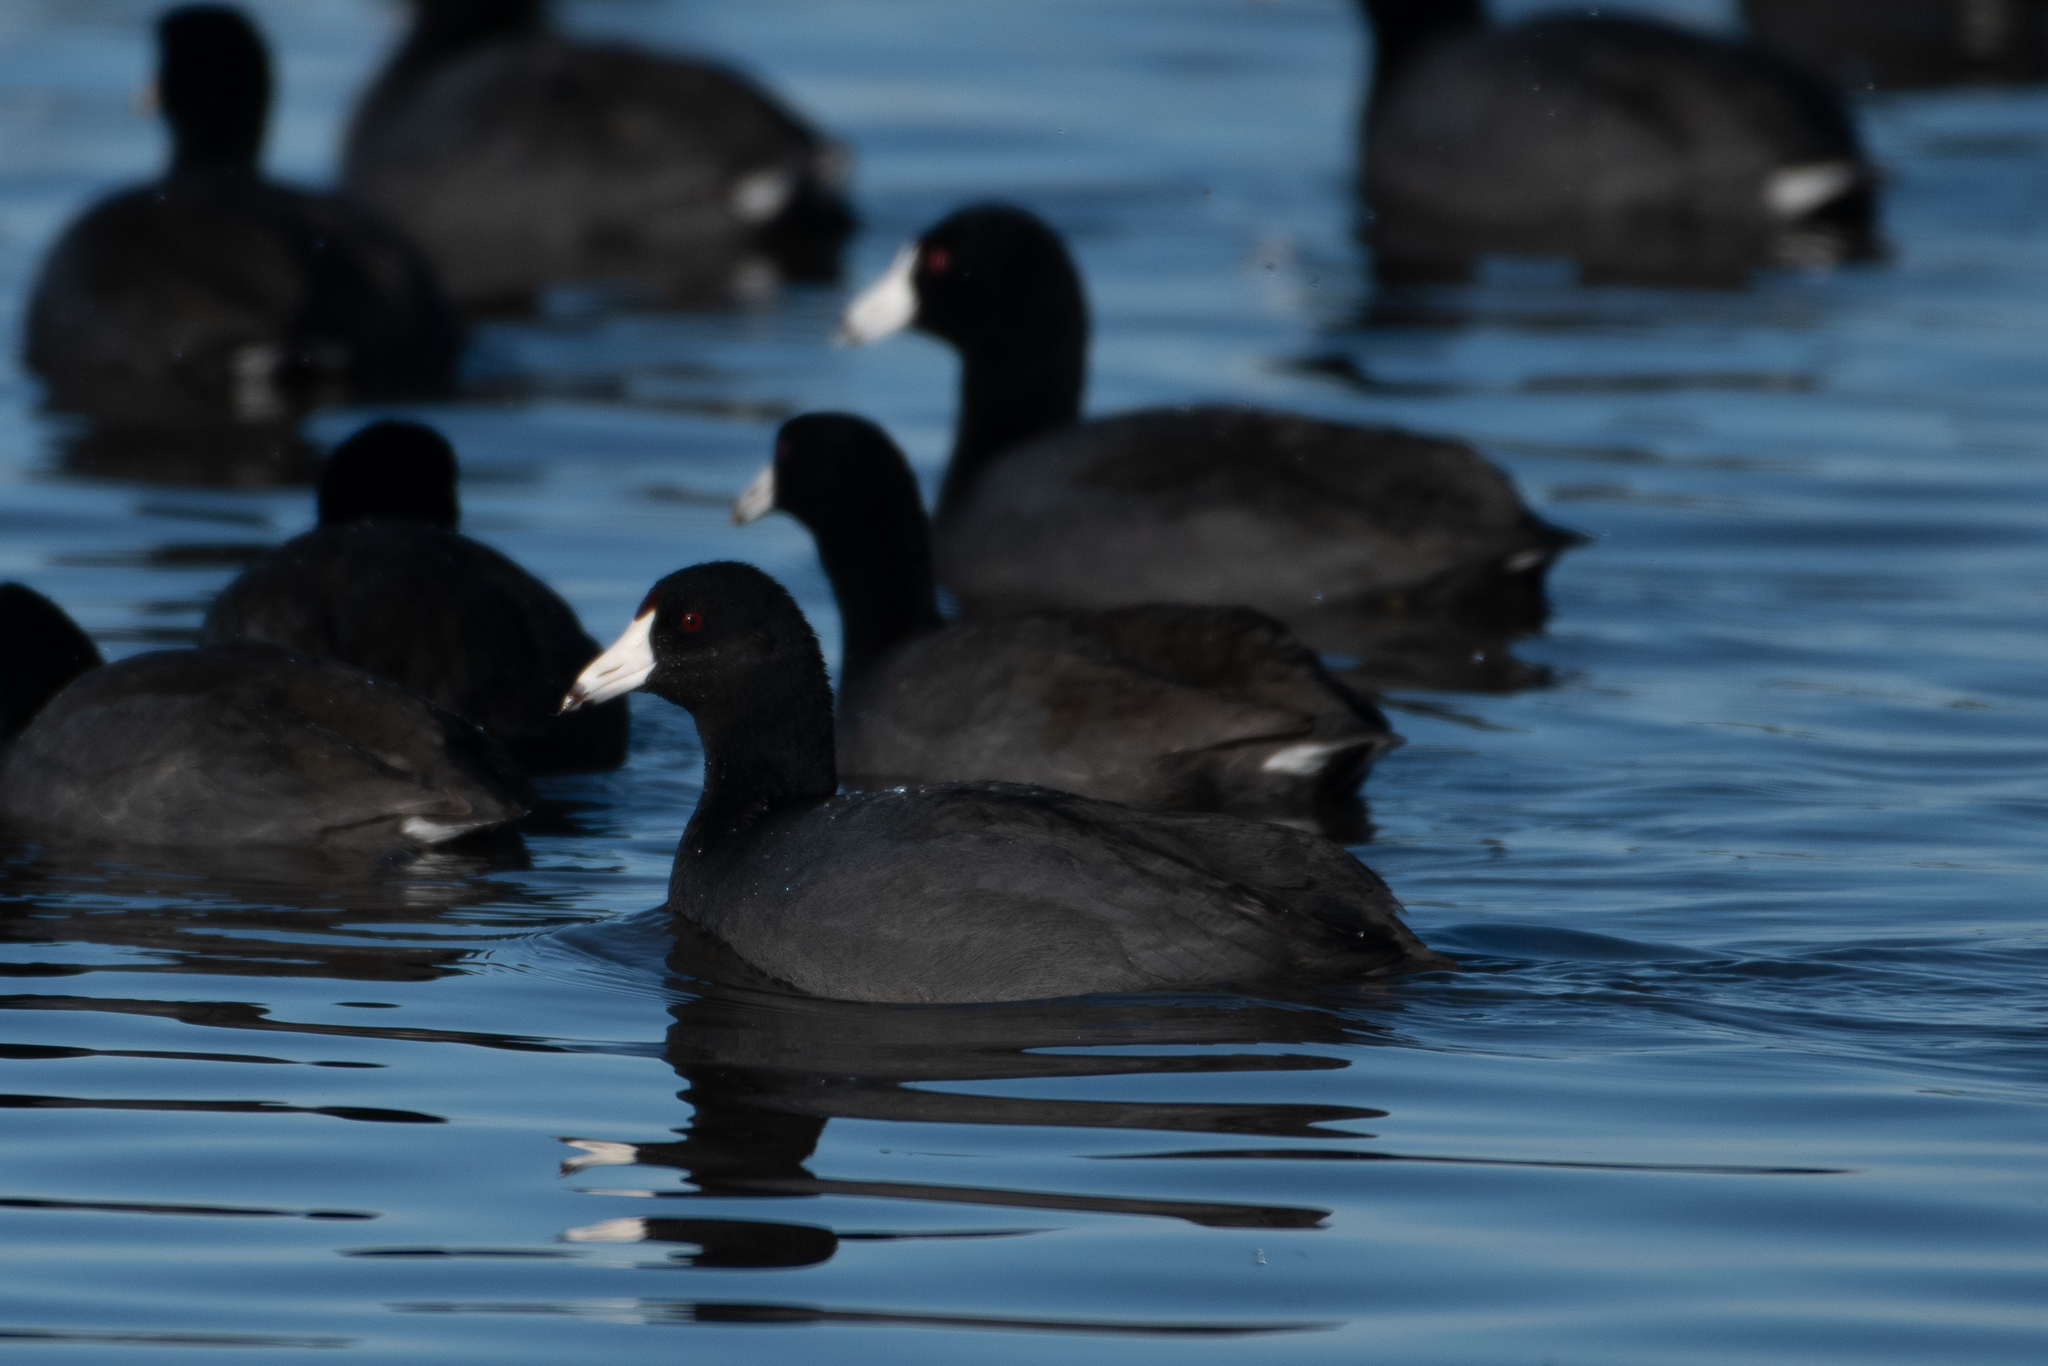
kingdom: Animalia
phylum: Chordata
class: Aves
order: Gruiformes
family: Rallidae
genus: Fulica
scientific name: Fulica americana
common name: American coot
